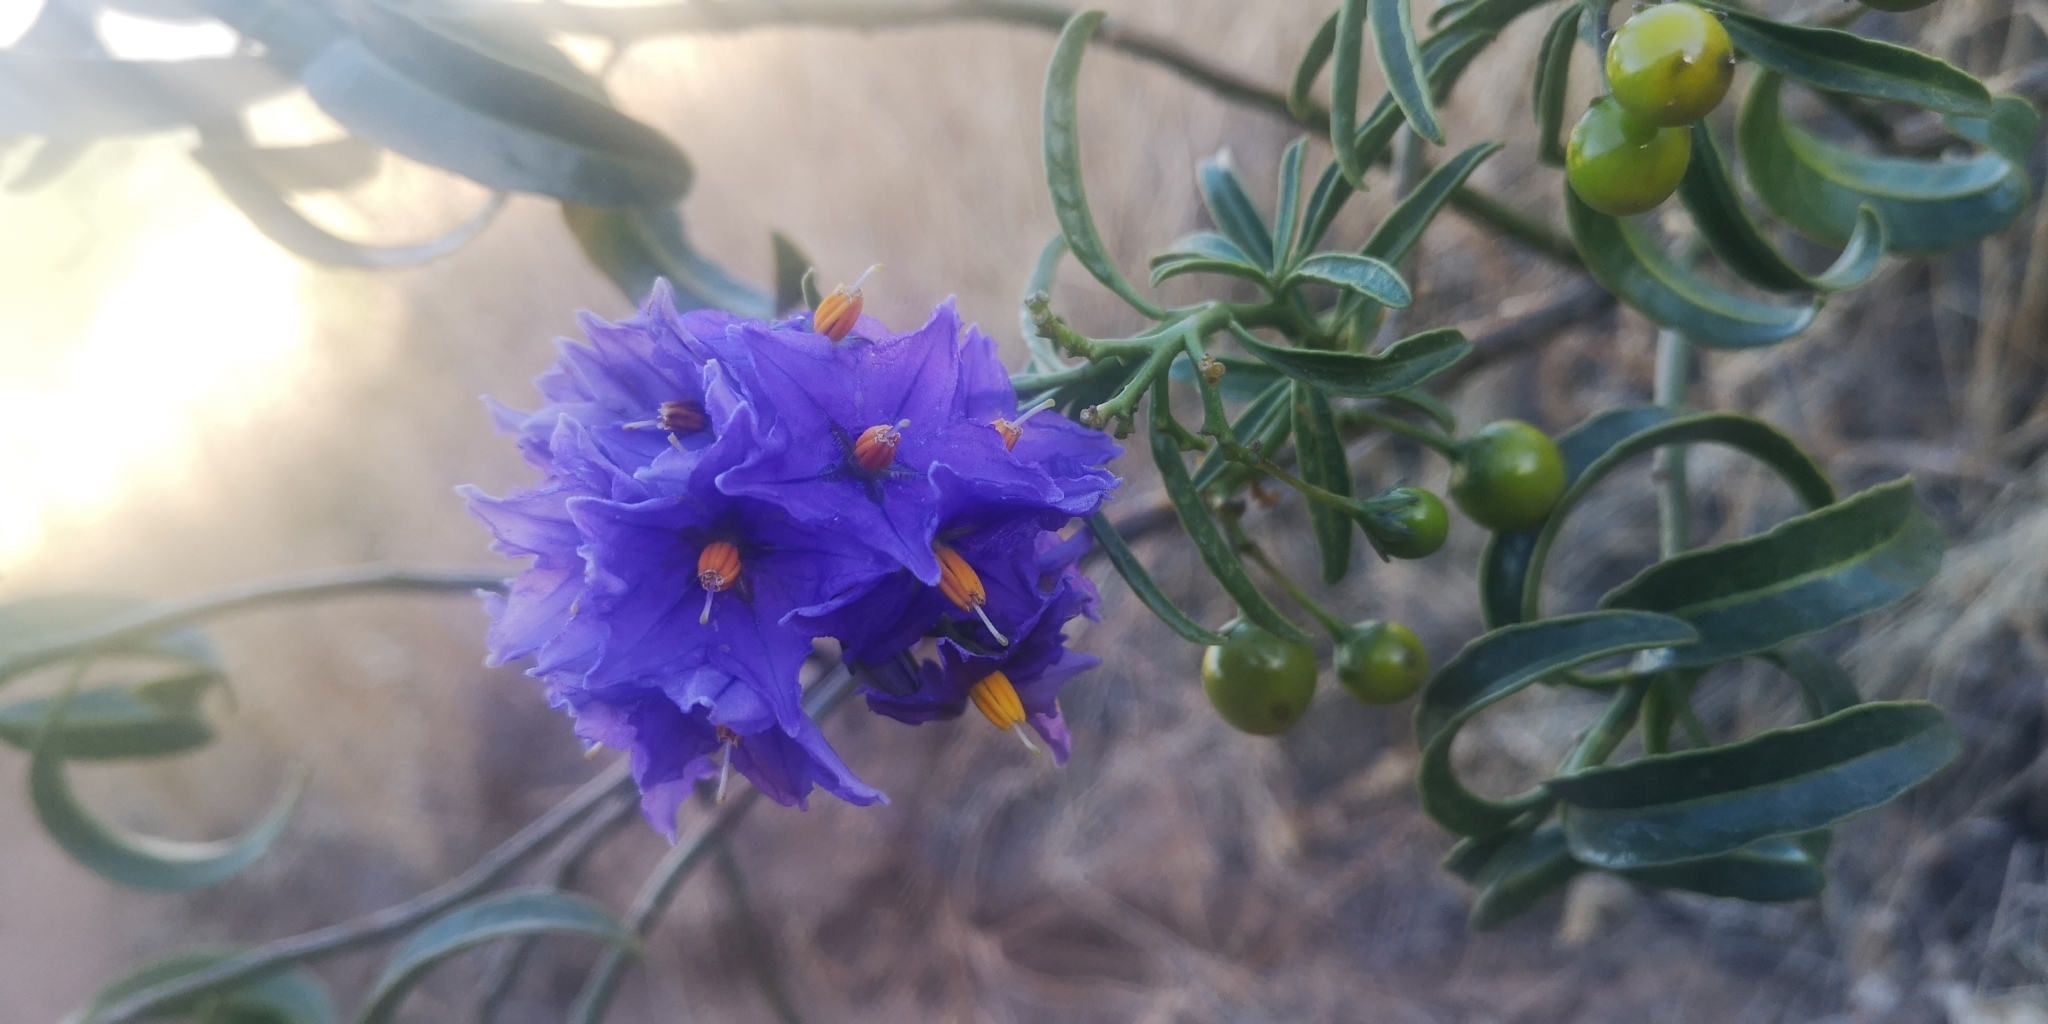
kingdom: Plantae
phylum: Tracheophyta
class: Magnoliopsida
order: Solanales
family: Solanaceae
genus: Solanum
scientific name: Solanum crispum
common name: Chilean nightshade
